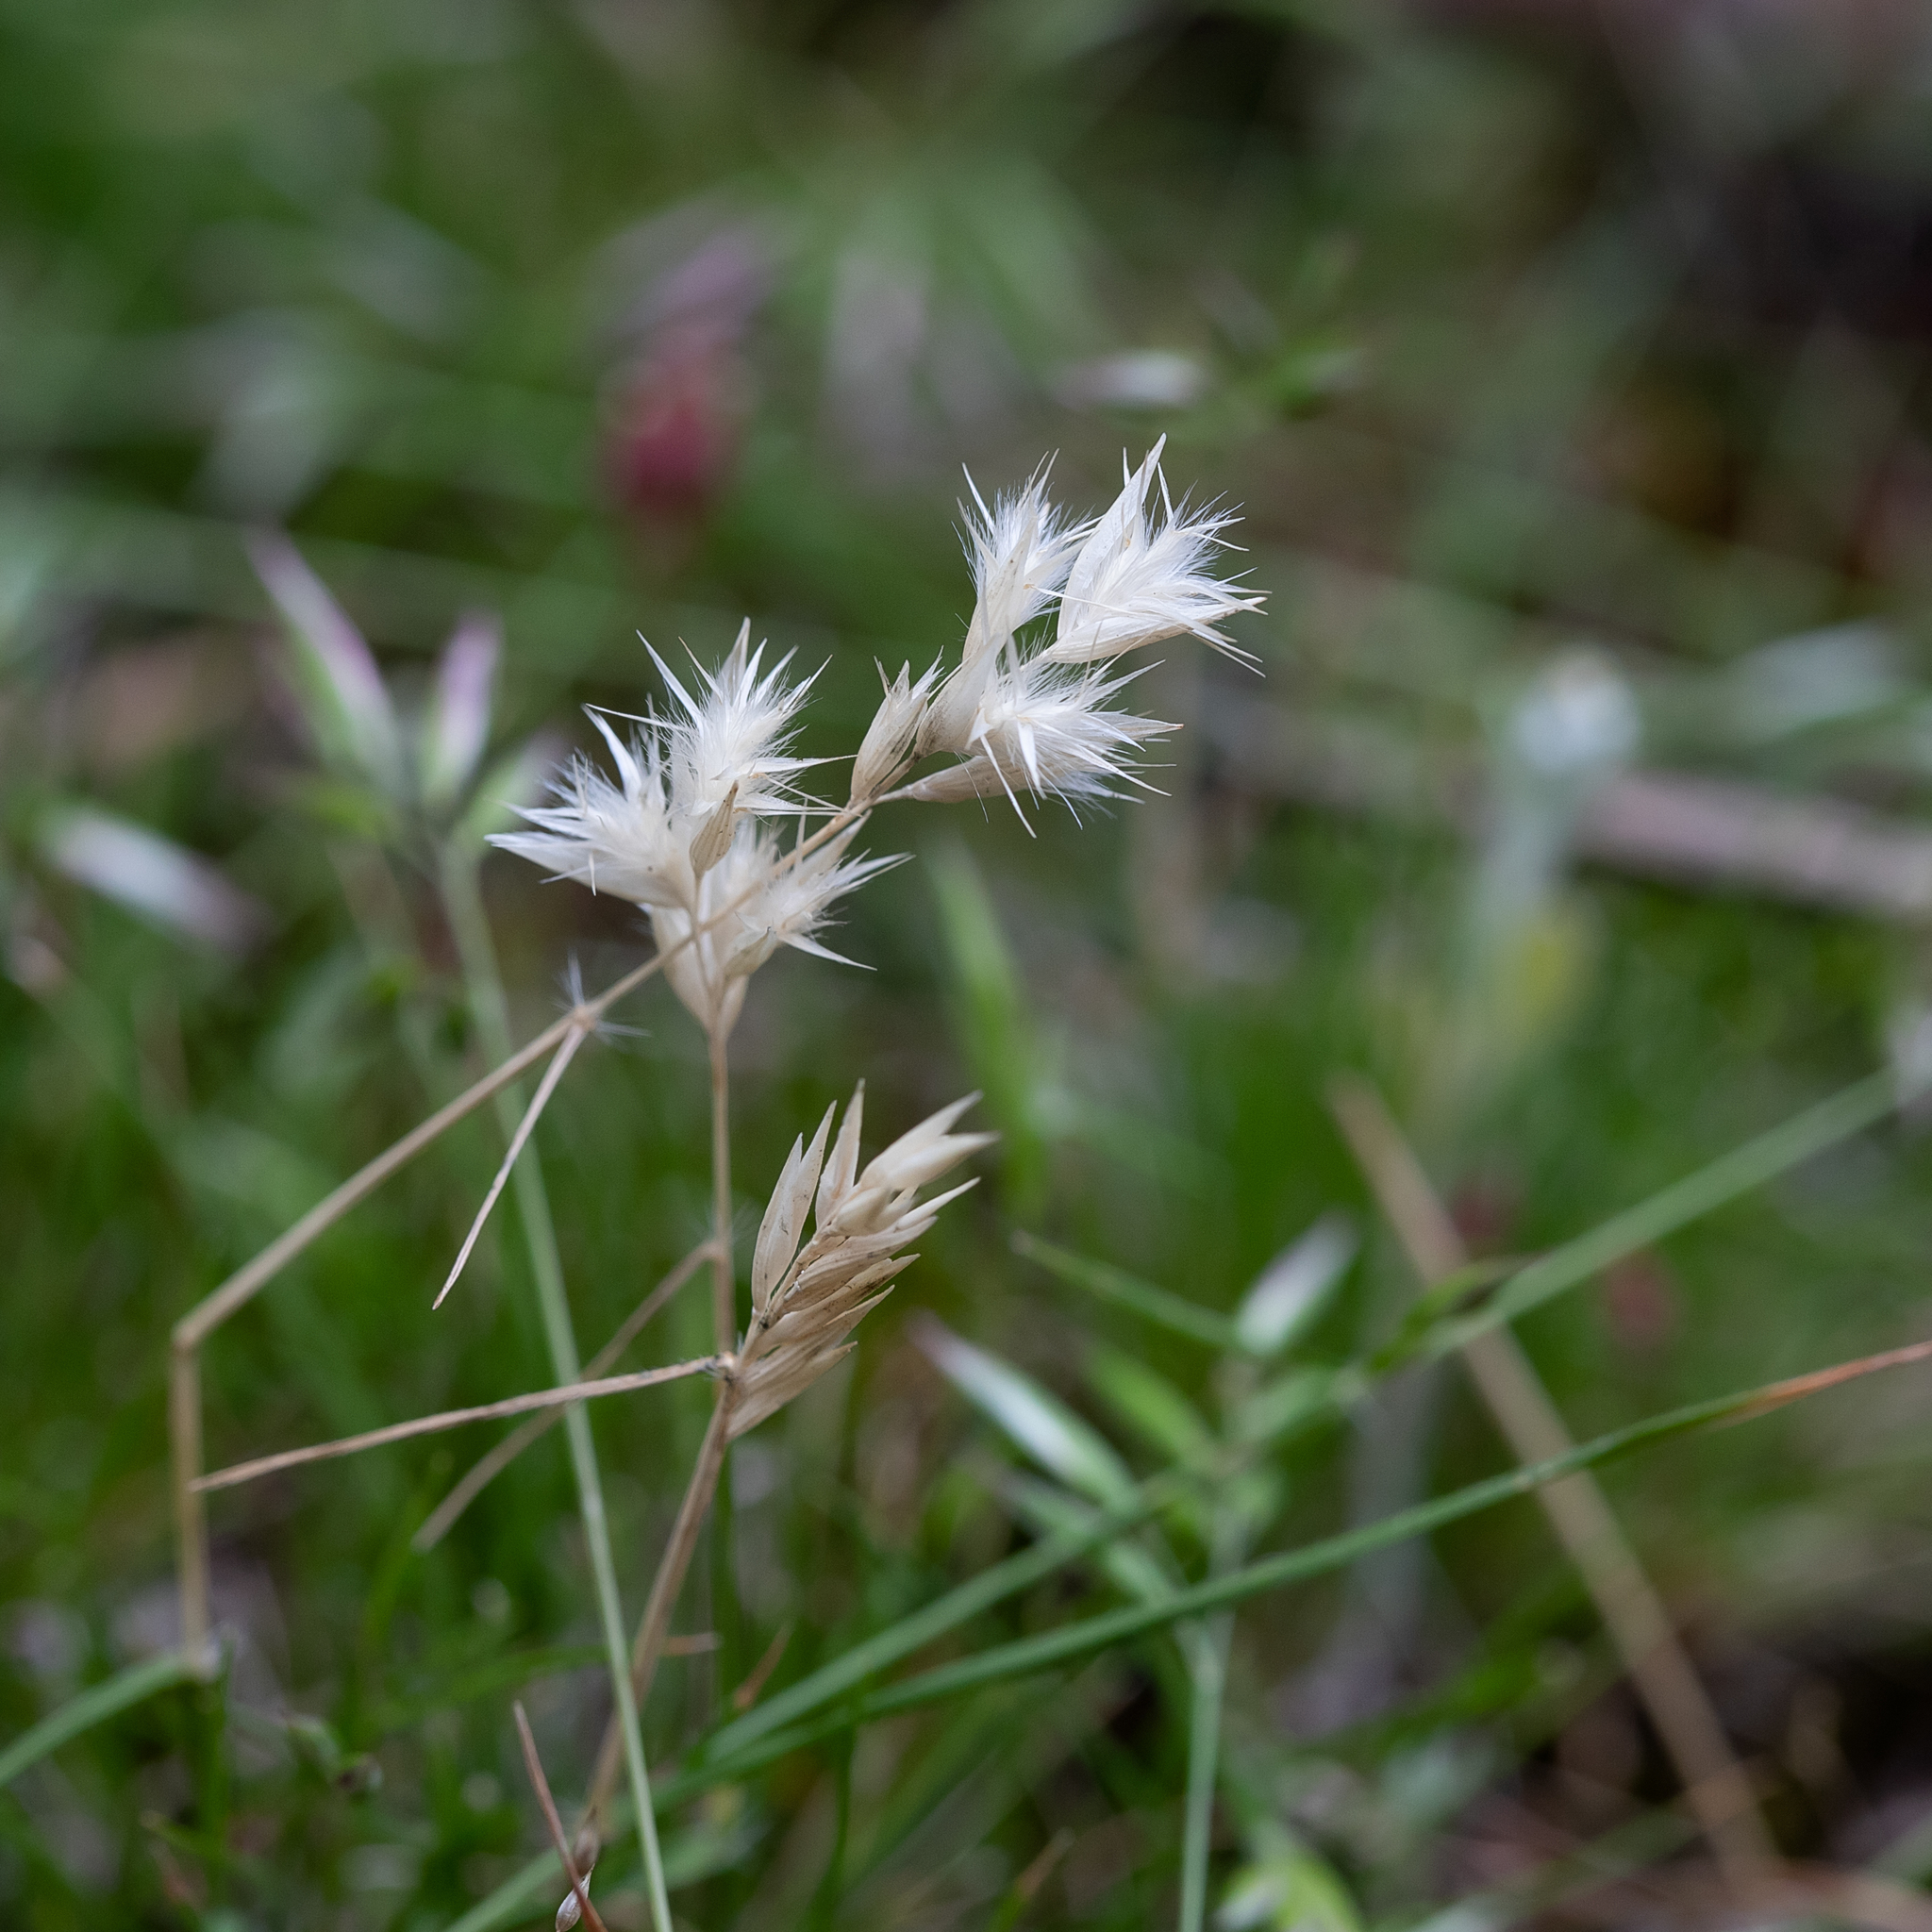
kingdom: Plantae
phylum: Tracheophyta
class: Liliopsida
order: Poales
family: Poaceae
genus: Rytidosperma
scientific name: Rytidosperma geniculatum
